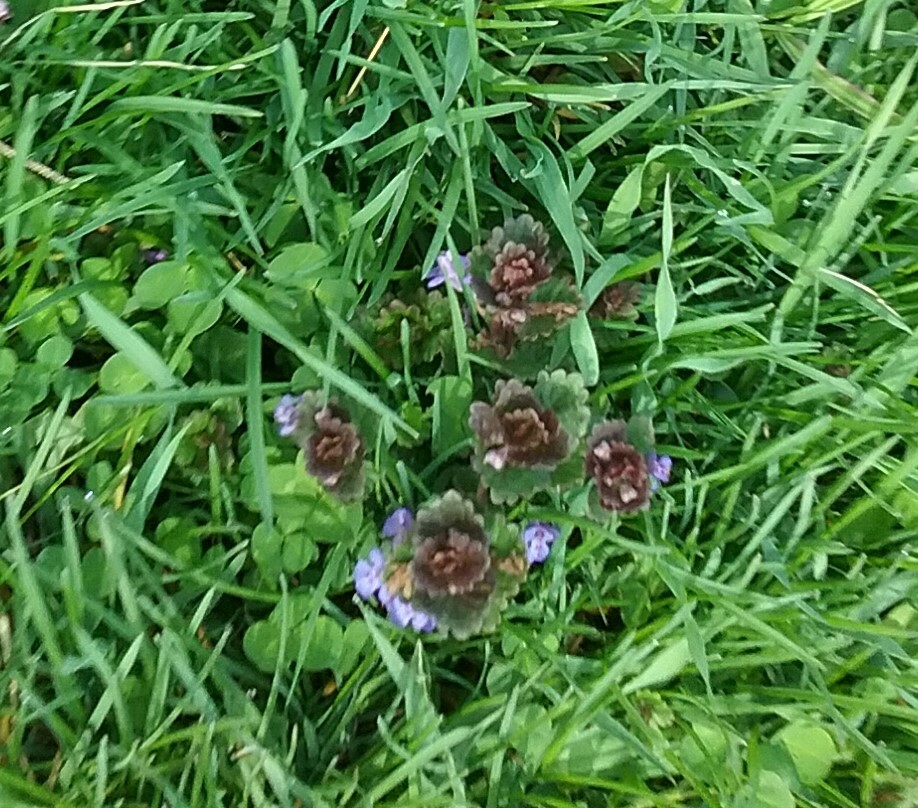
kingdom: Plantae
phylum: Tracheophyta
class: Magnoliopsida
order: Lamiales
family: Lamiaceae
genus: Glechoma
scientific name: Glechoma hederacea
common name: Ground ivy
